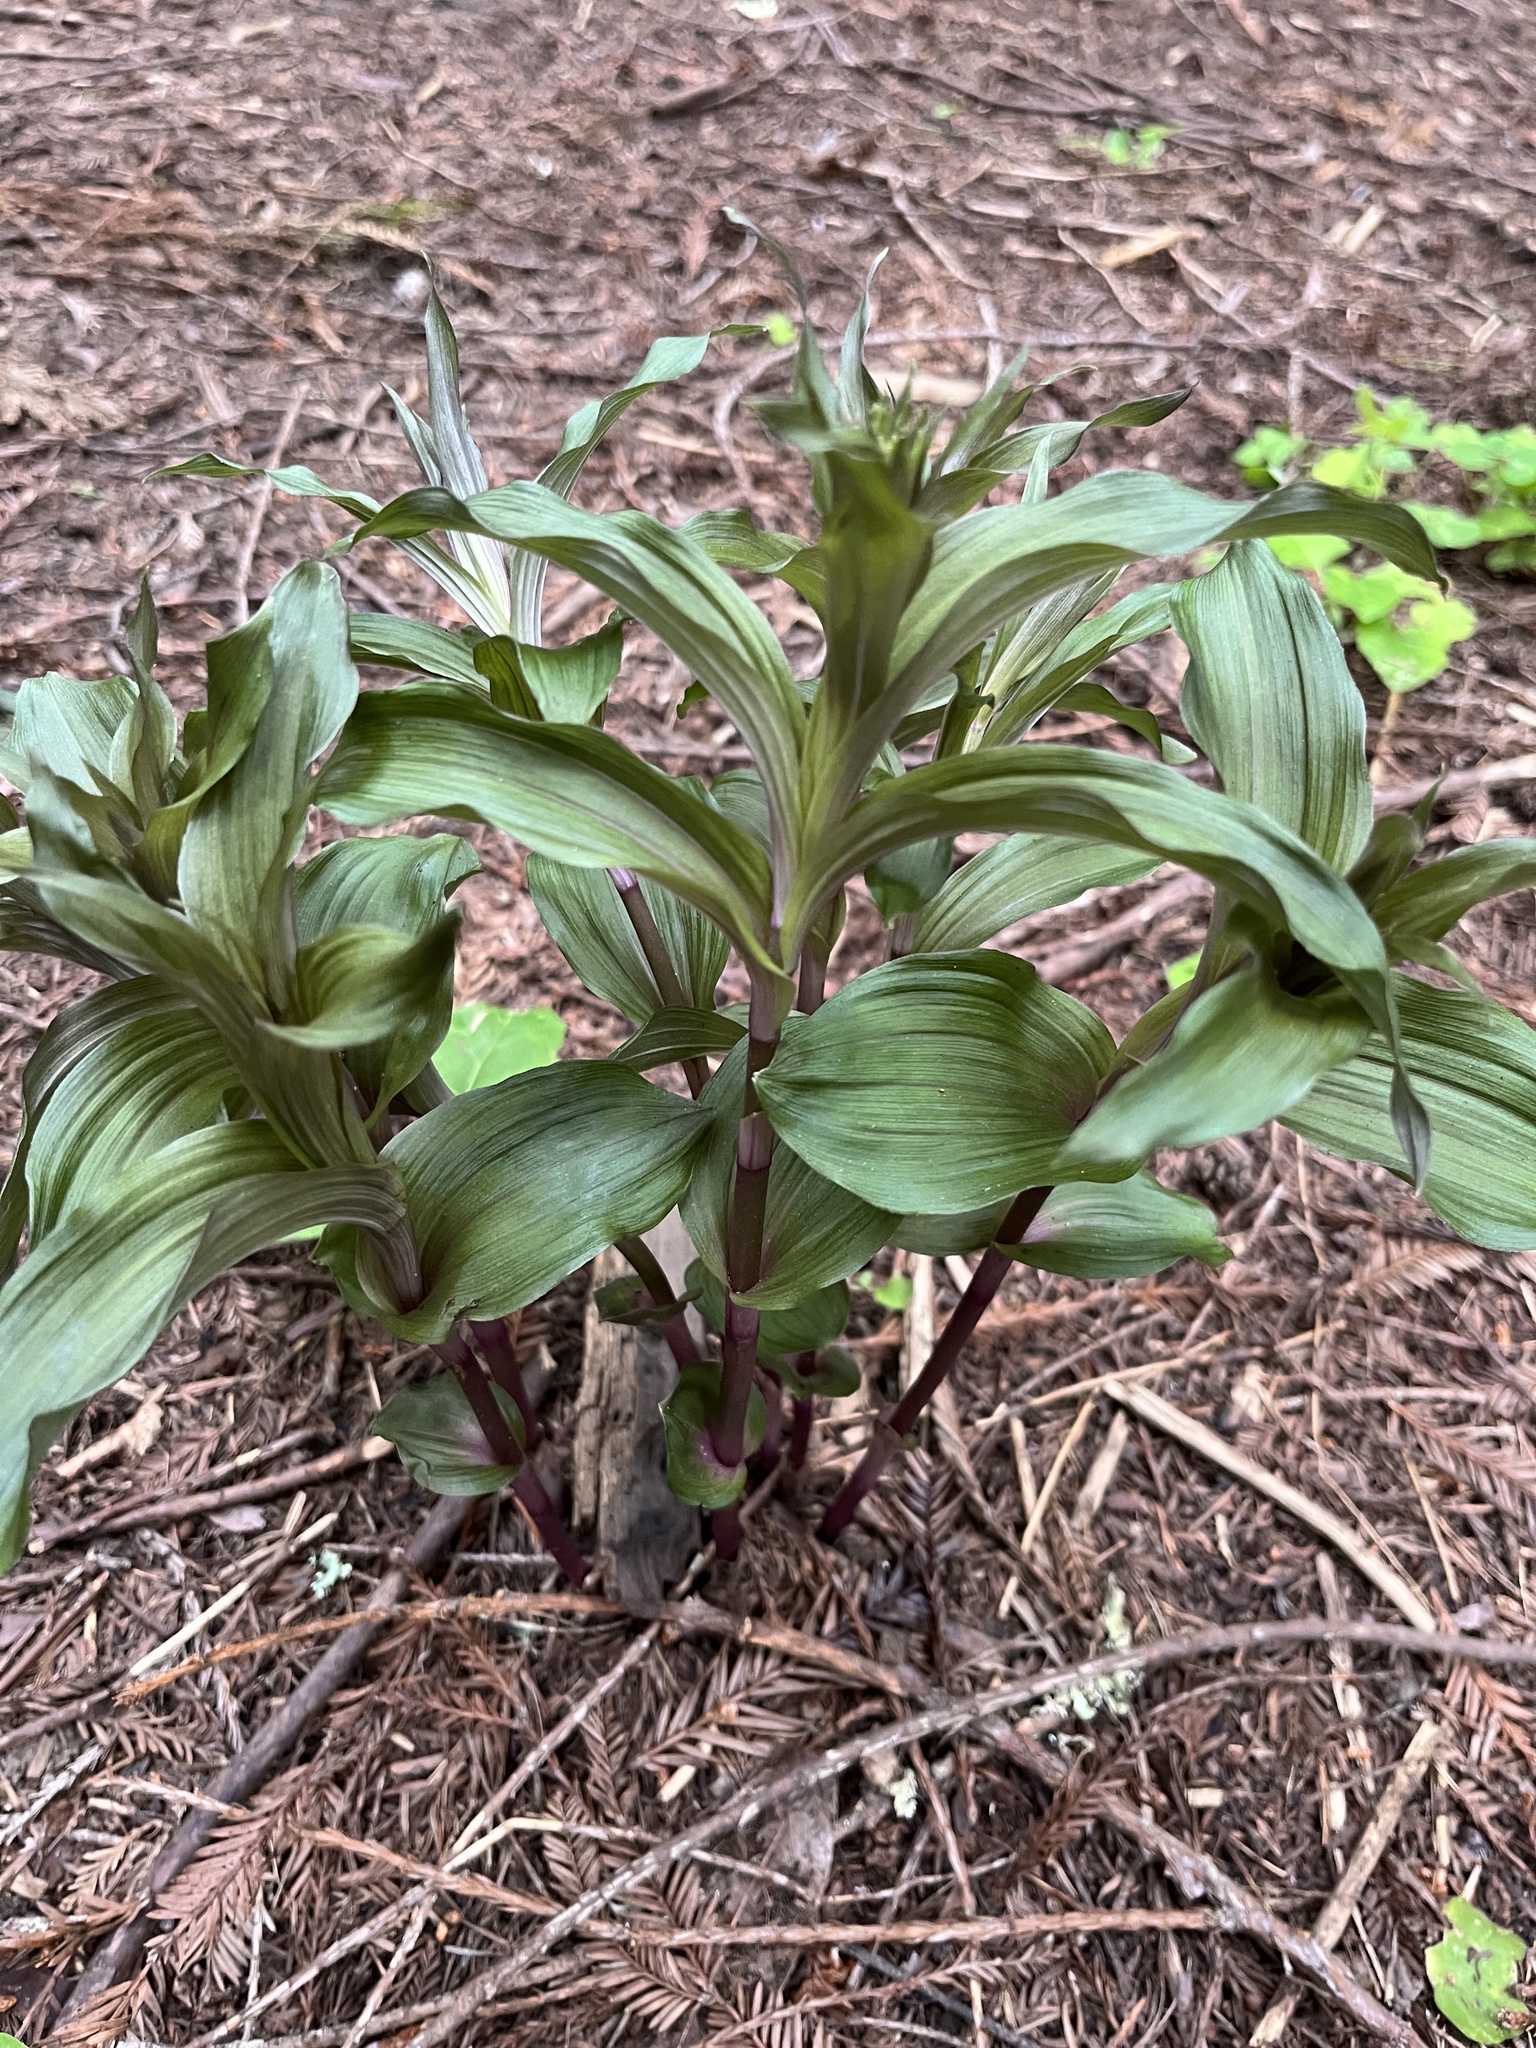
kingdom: Plantae
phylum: Tracheophyta
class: Liliopsida
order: Asparagales
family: Orchidaceae
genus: Epipactis
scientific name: Epipactis helleborine
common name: Broad-leaved helleborine
